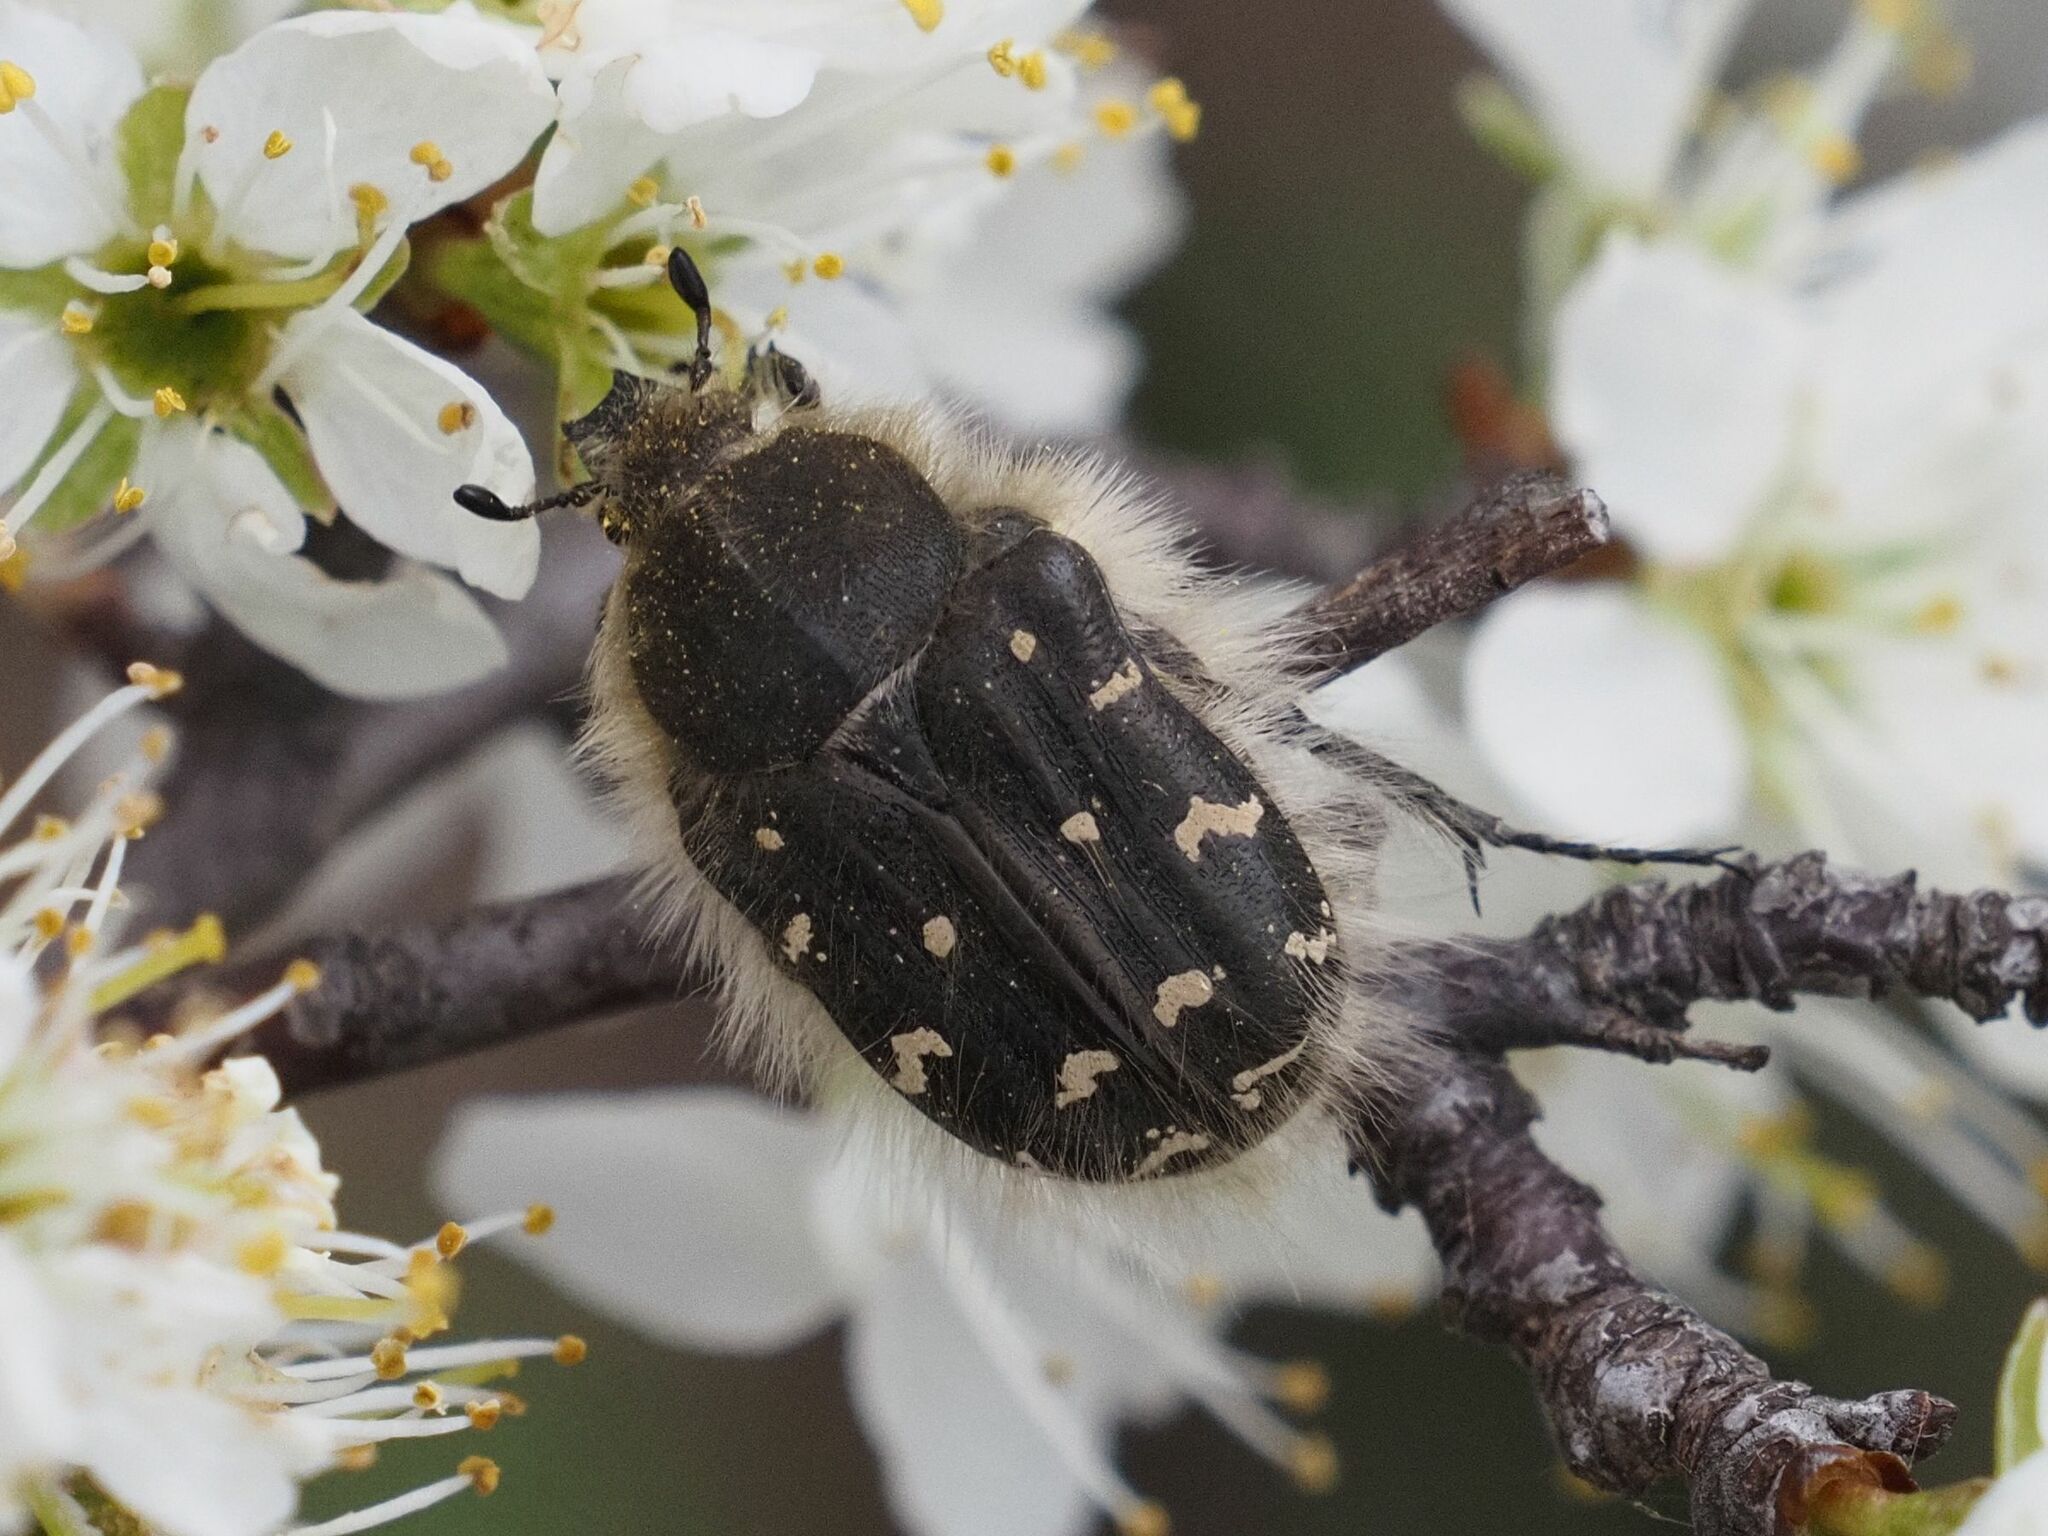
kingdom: Animalia
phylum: Arthropoda
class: Insecta
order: Coleoptera
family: Scarabaeidae
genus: Tropinota
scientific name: Tropinota hirta
